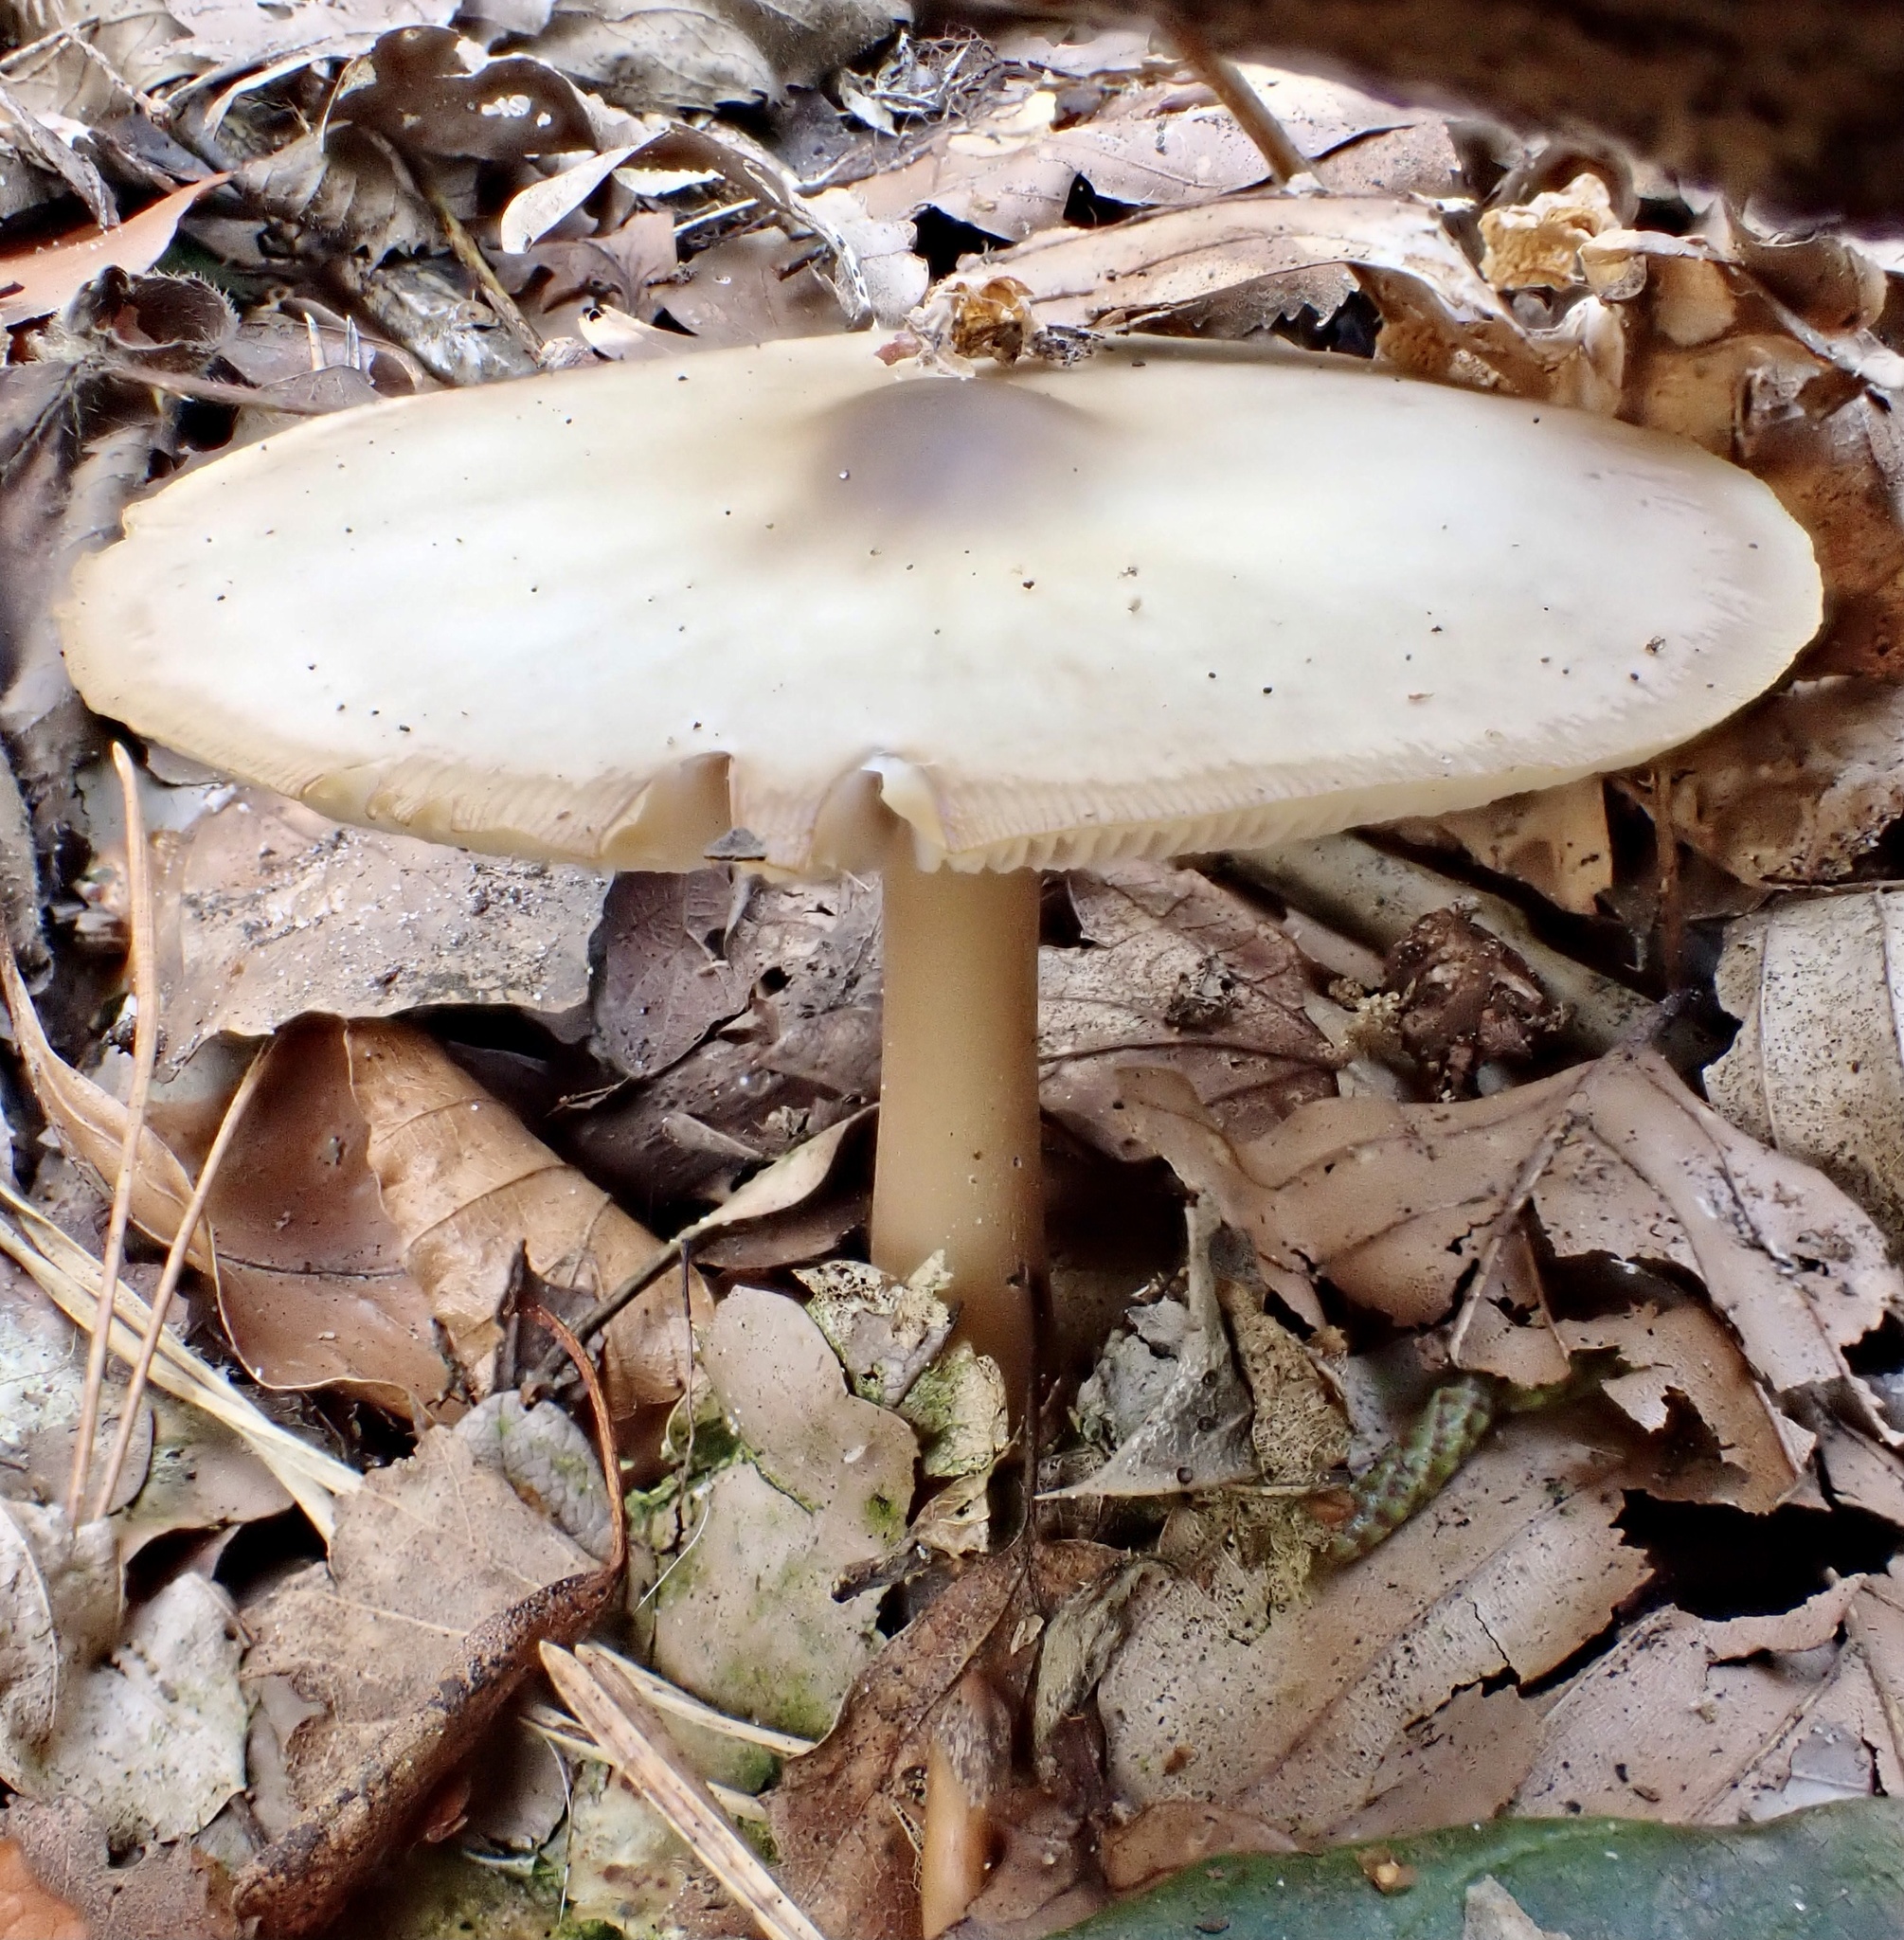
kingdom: Fungi
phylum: Basidiomycota
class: Agaricomycetes
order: Agaricales
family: Omphalotaceae
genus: Rhodocollybia
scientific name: Rhodocollybia butyracea
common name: Butter cap
